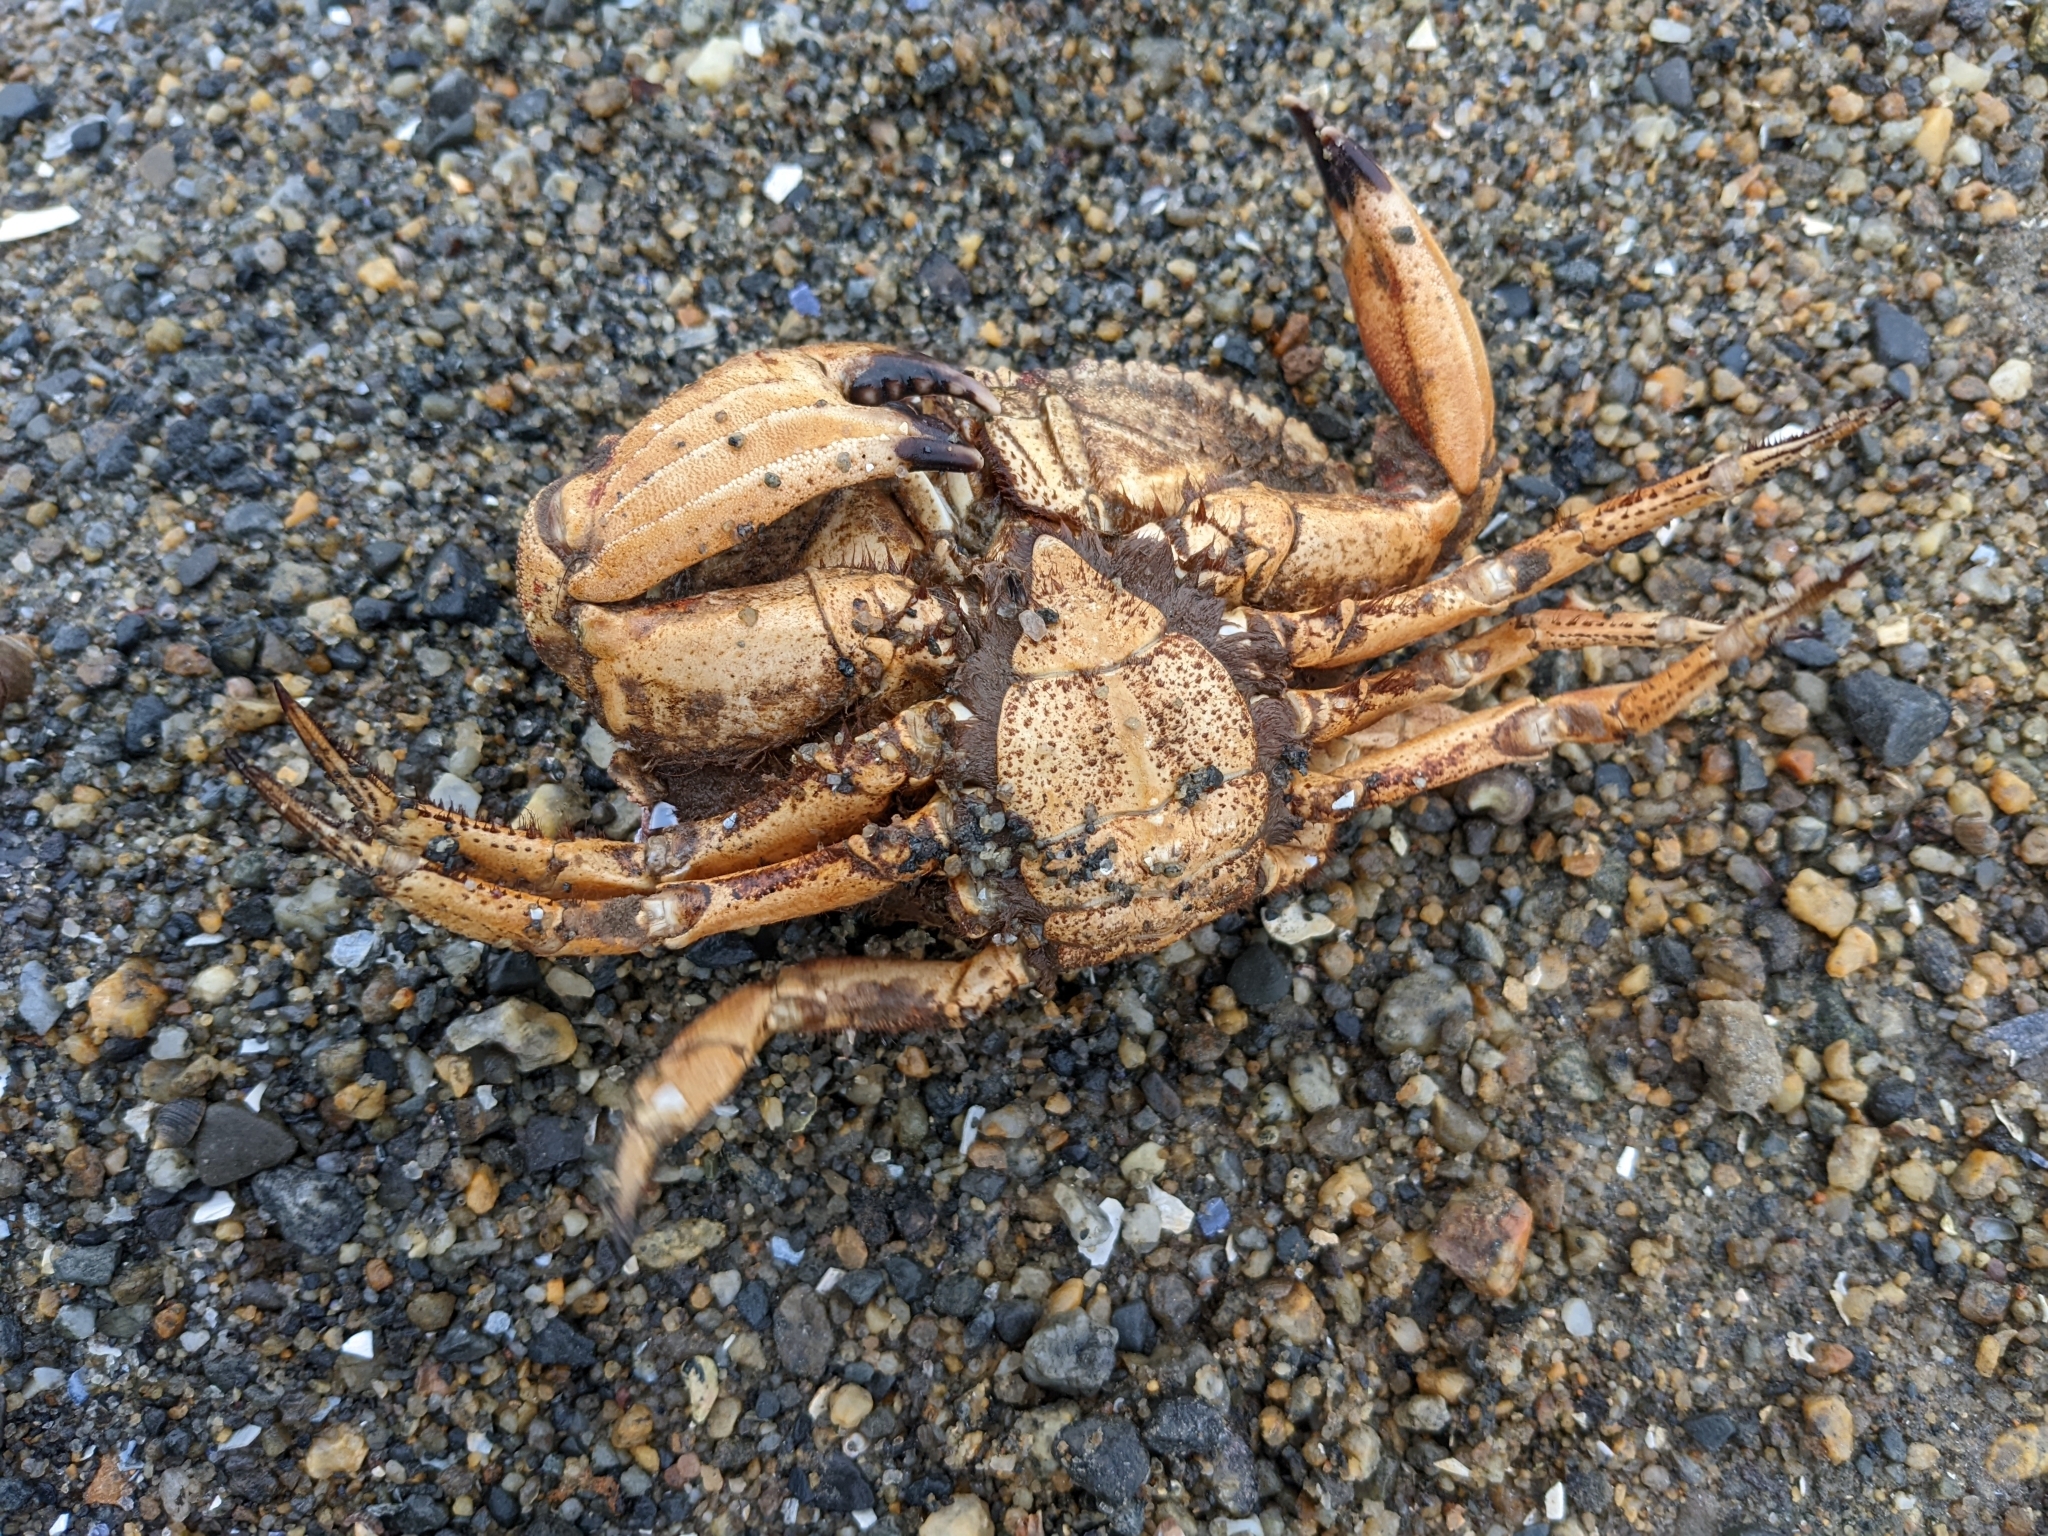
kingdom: Animalia
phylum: Arthropoda
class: Malacostraca
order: Decapoda
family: Cancridae
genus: Cancer
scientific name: Cancer borealis
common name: Jonah crab
